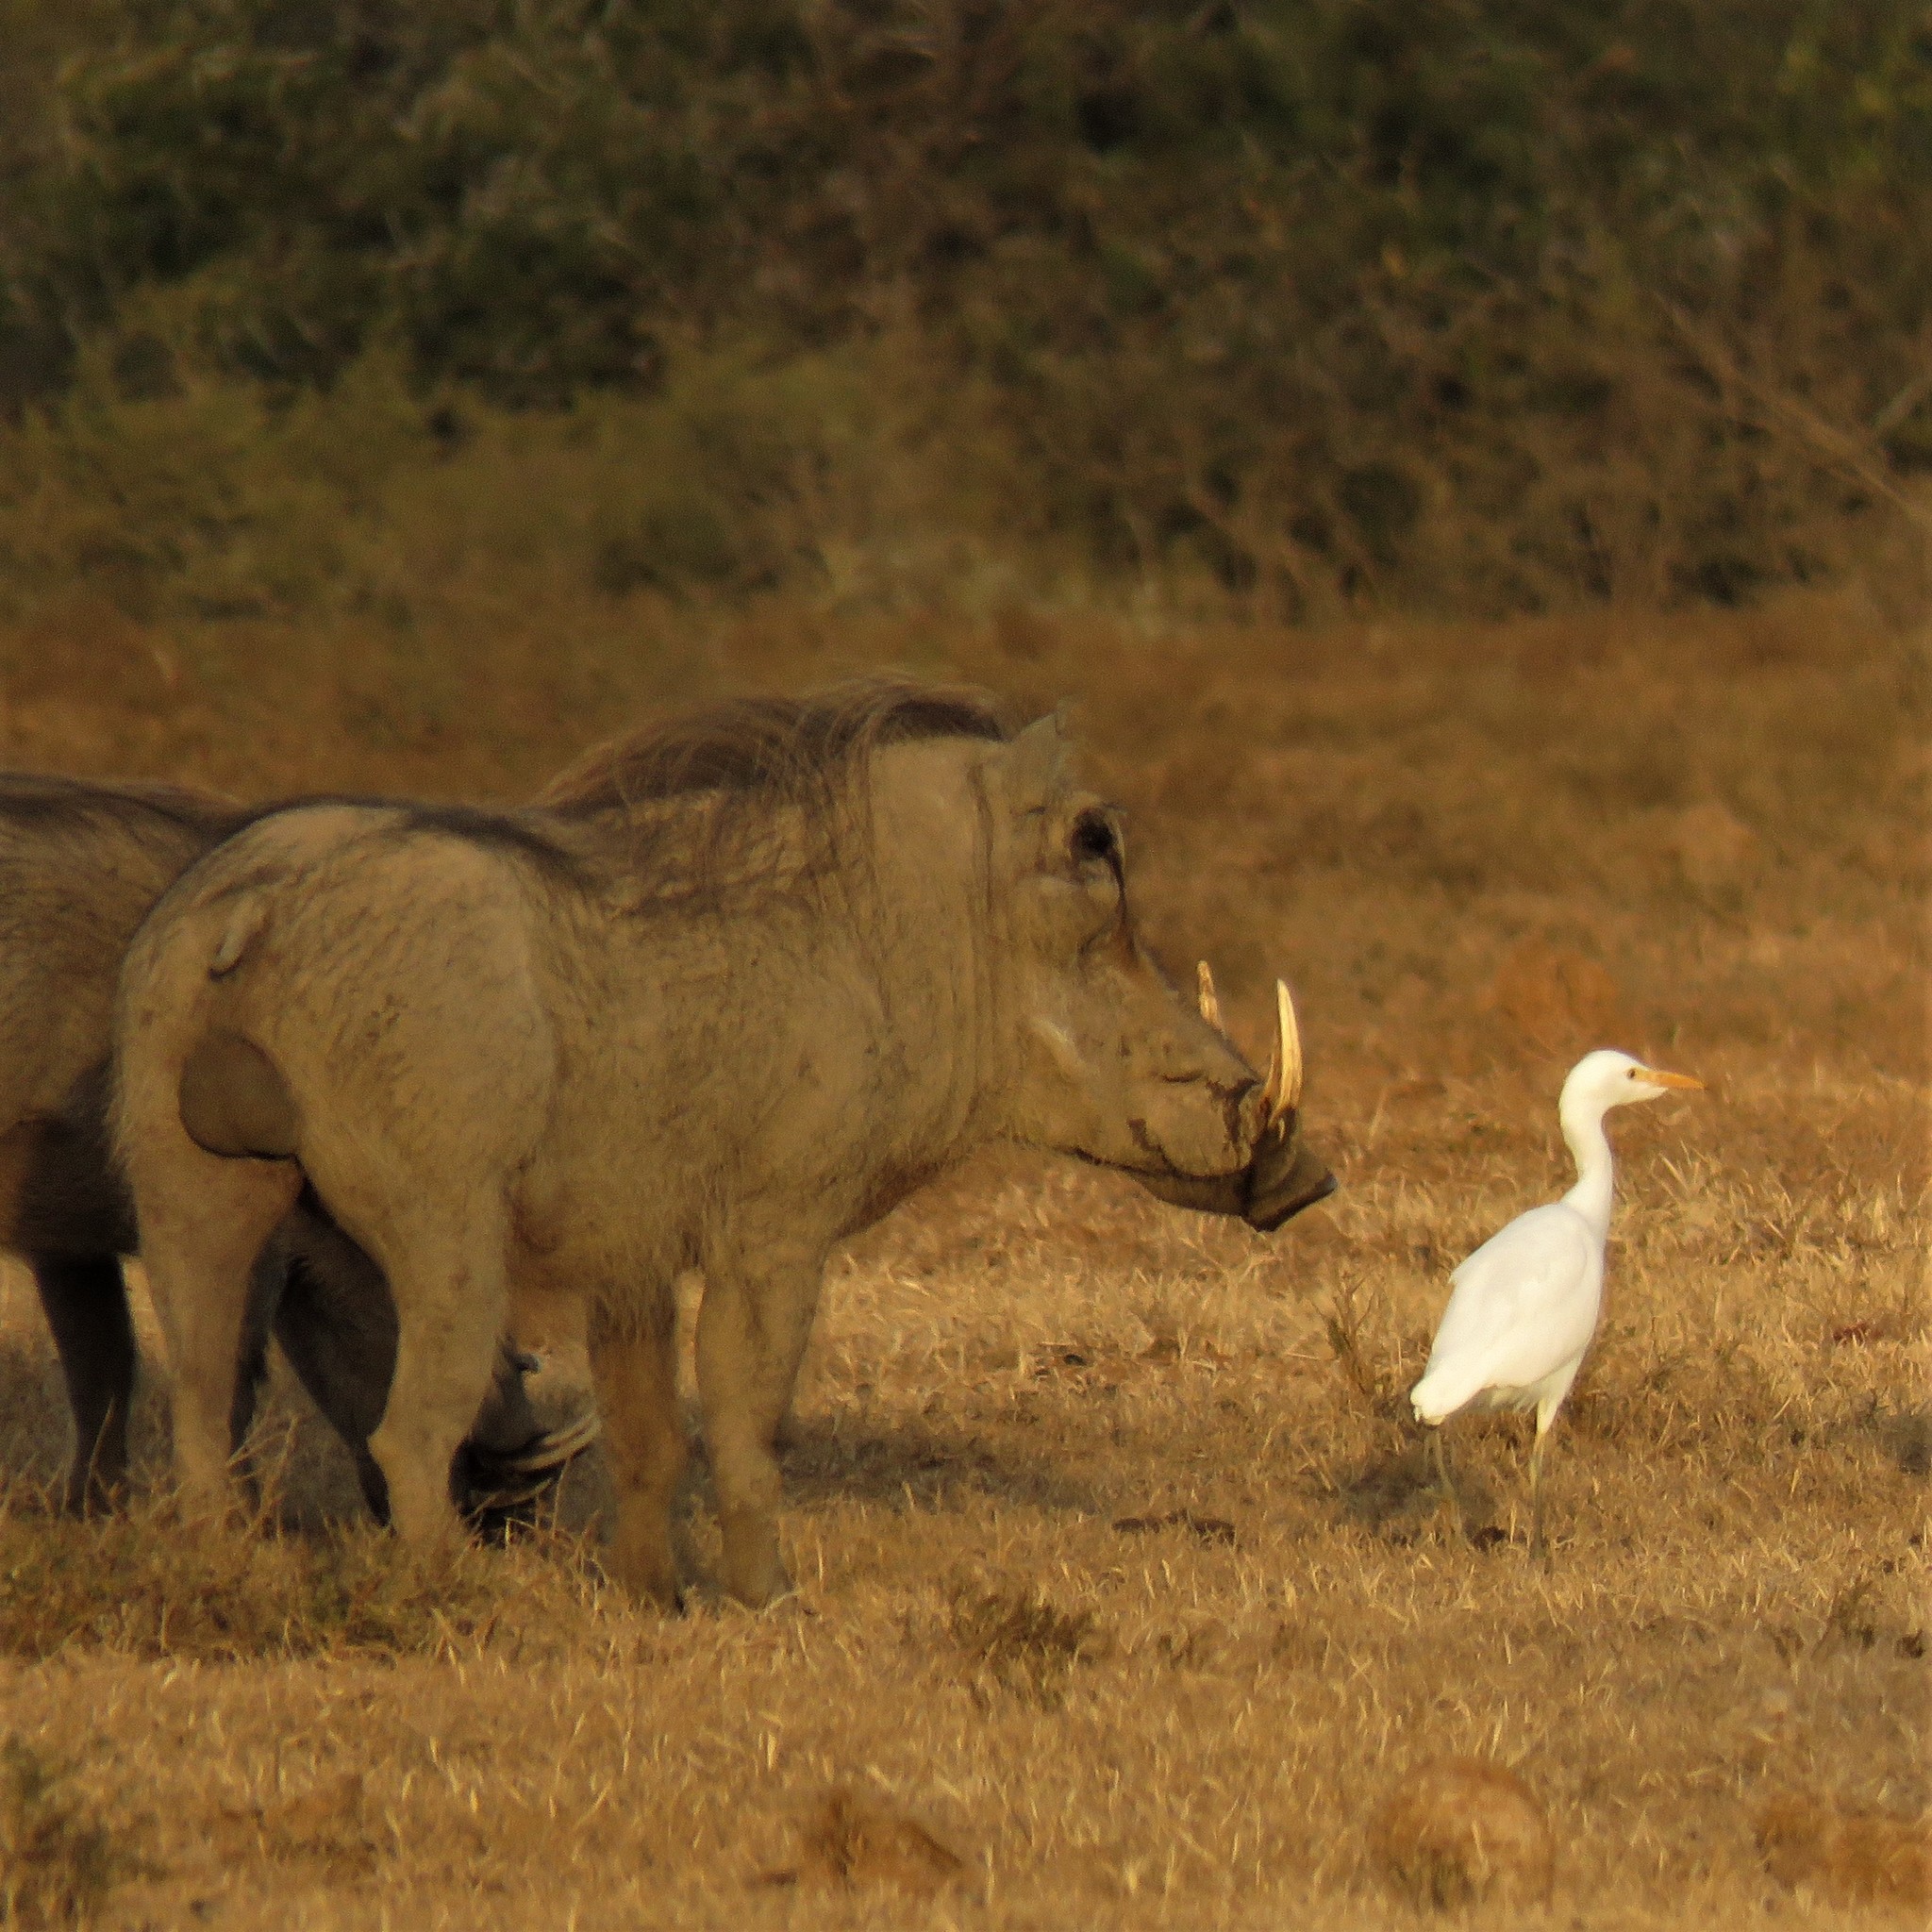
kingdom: Animalia
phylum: Chordata
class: Mammalia
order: Artiodactyla
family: Suidae
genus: Phacochoerus
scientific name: Phacochoerus africanus
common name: Common warthog
